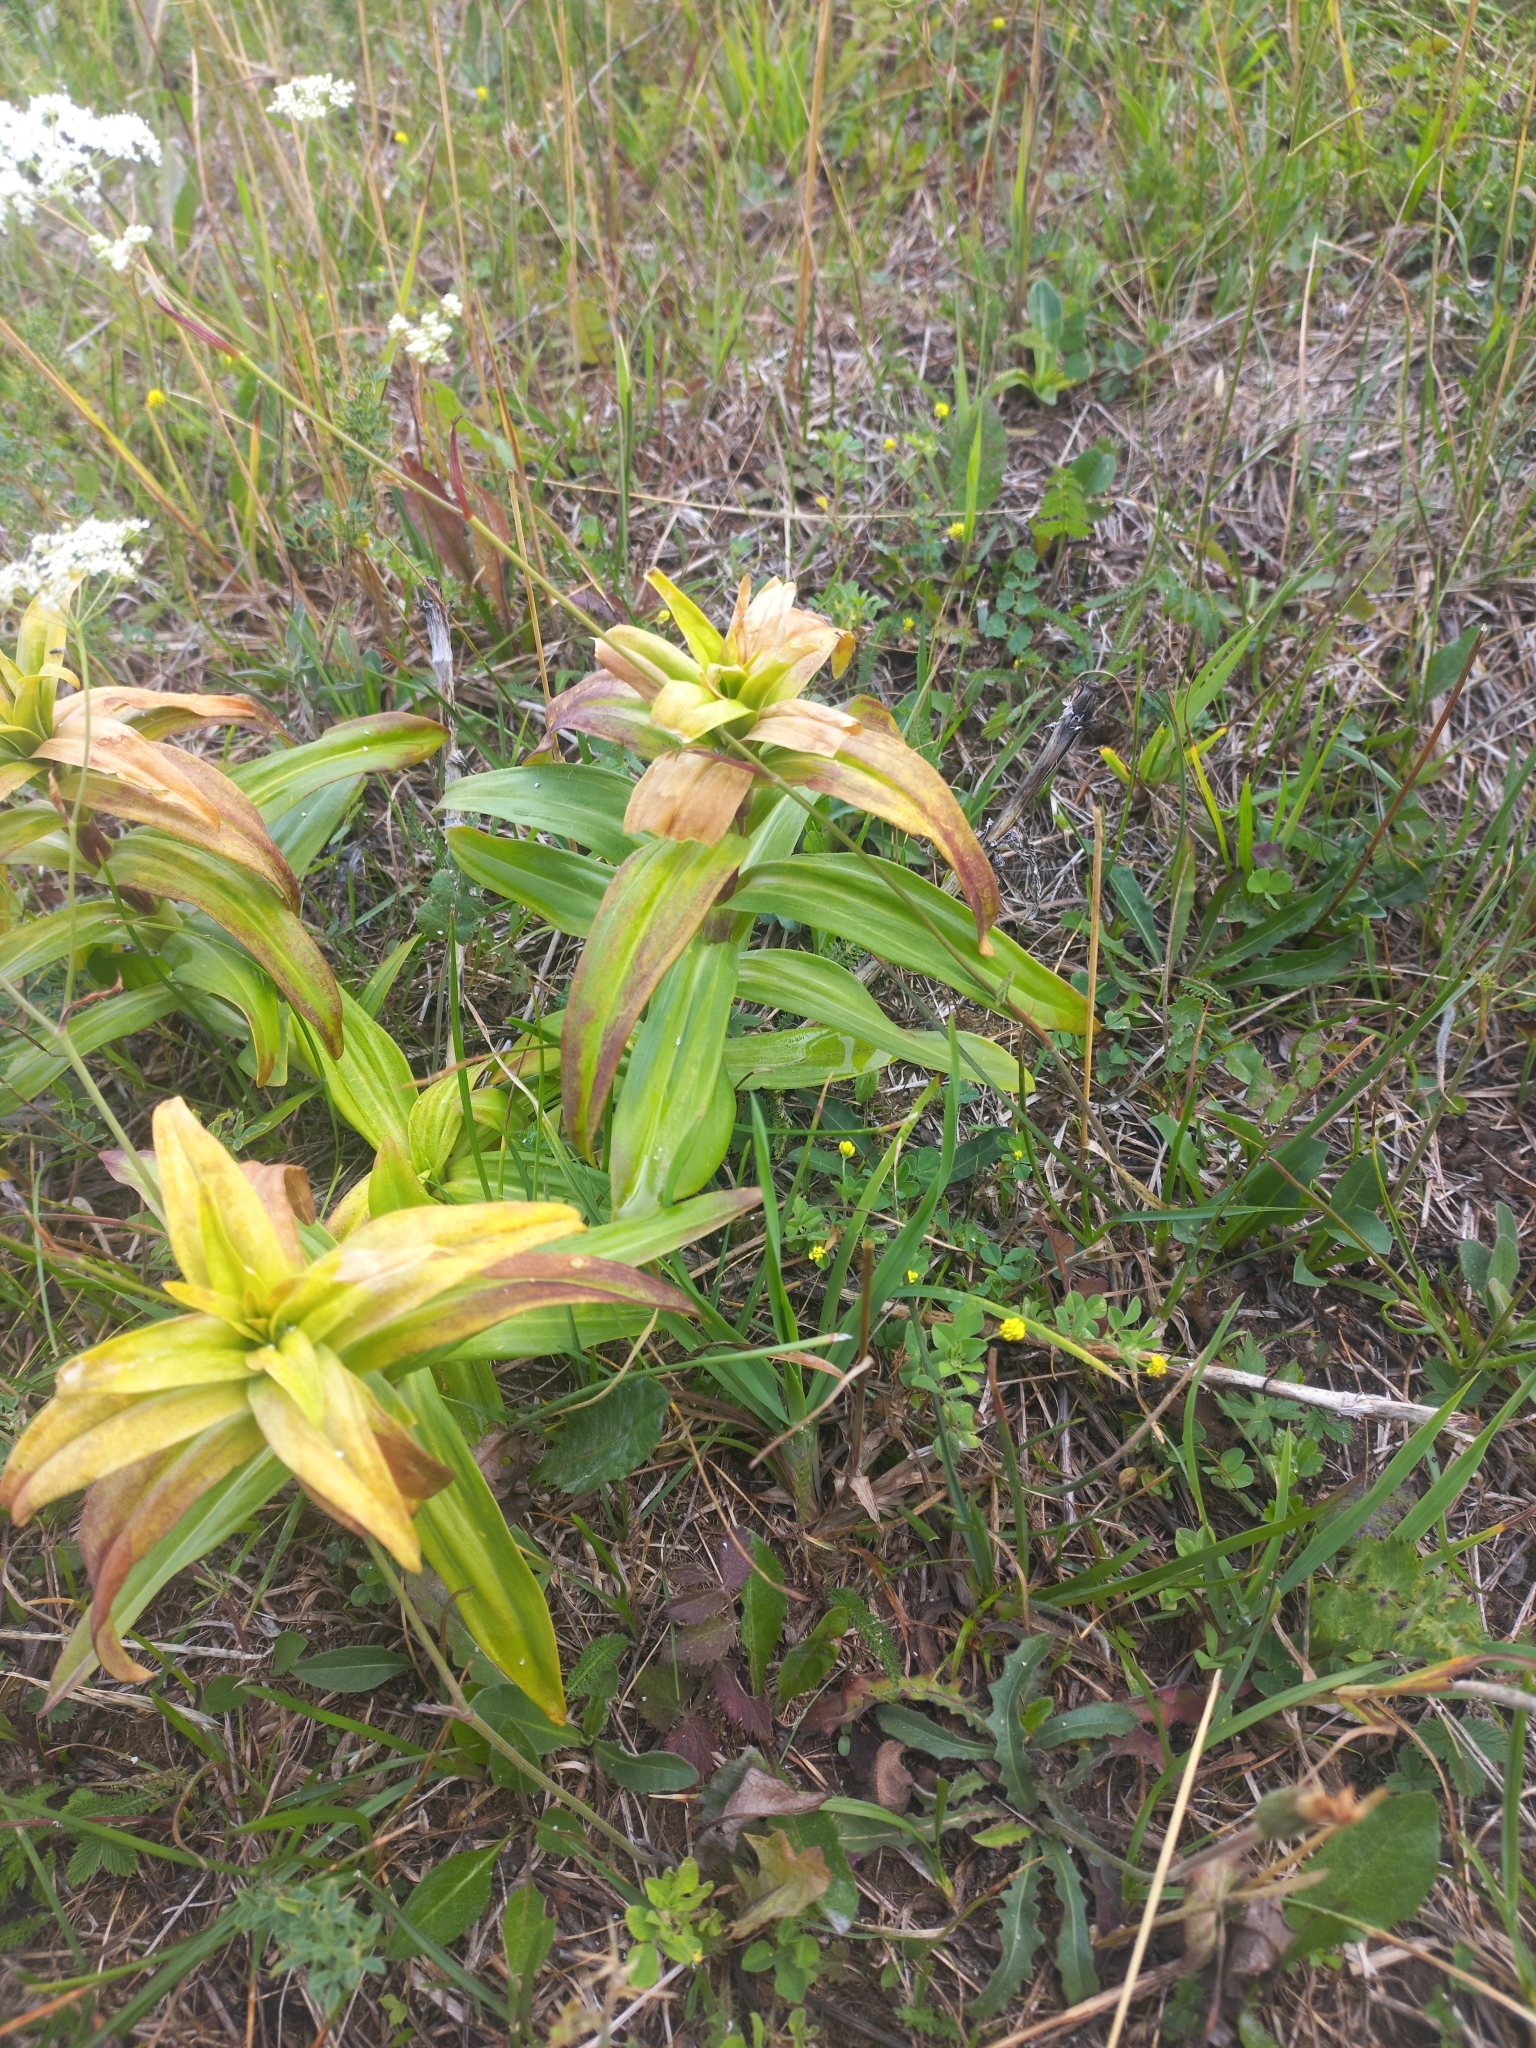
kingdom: Plantae
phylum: Tracheophyta
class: Magnoliopsida
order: Gentianales
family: Gentianaceae
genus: Gentiana
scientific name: Gentiana cruciata
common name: Cross gentian
